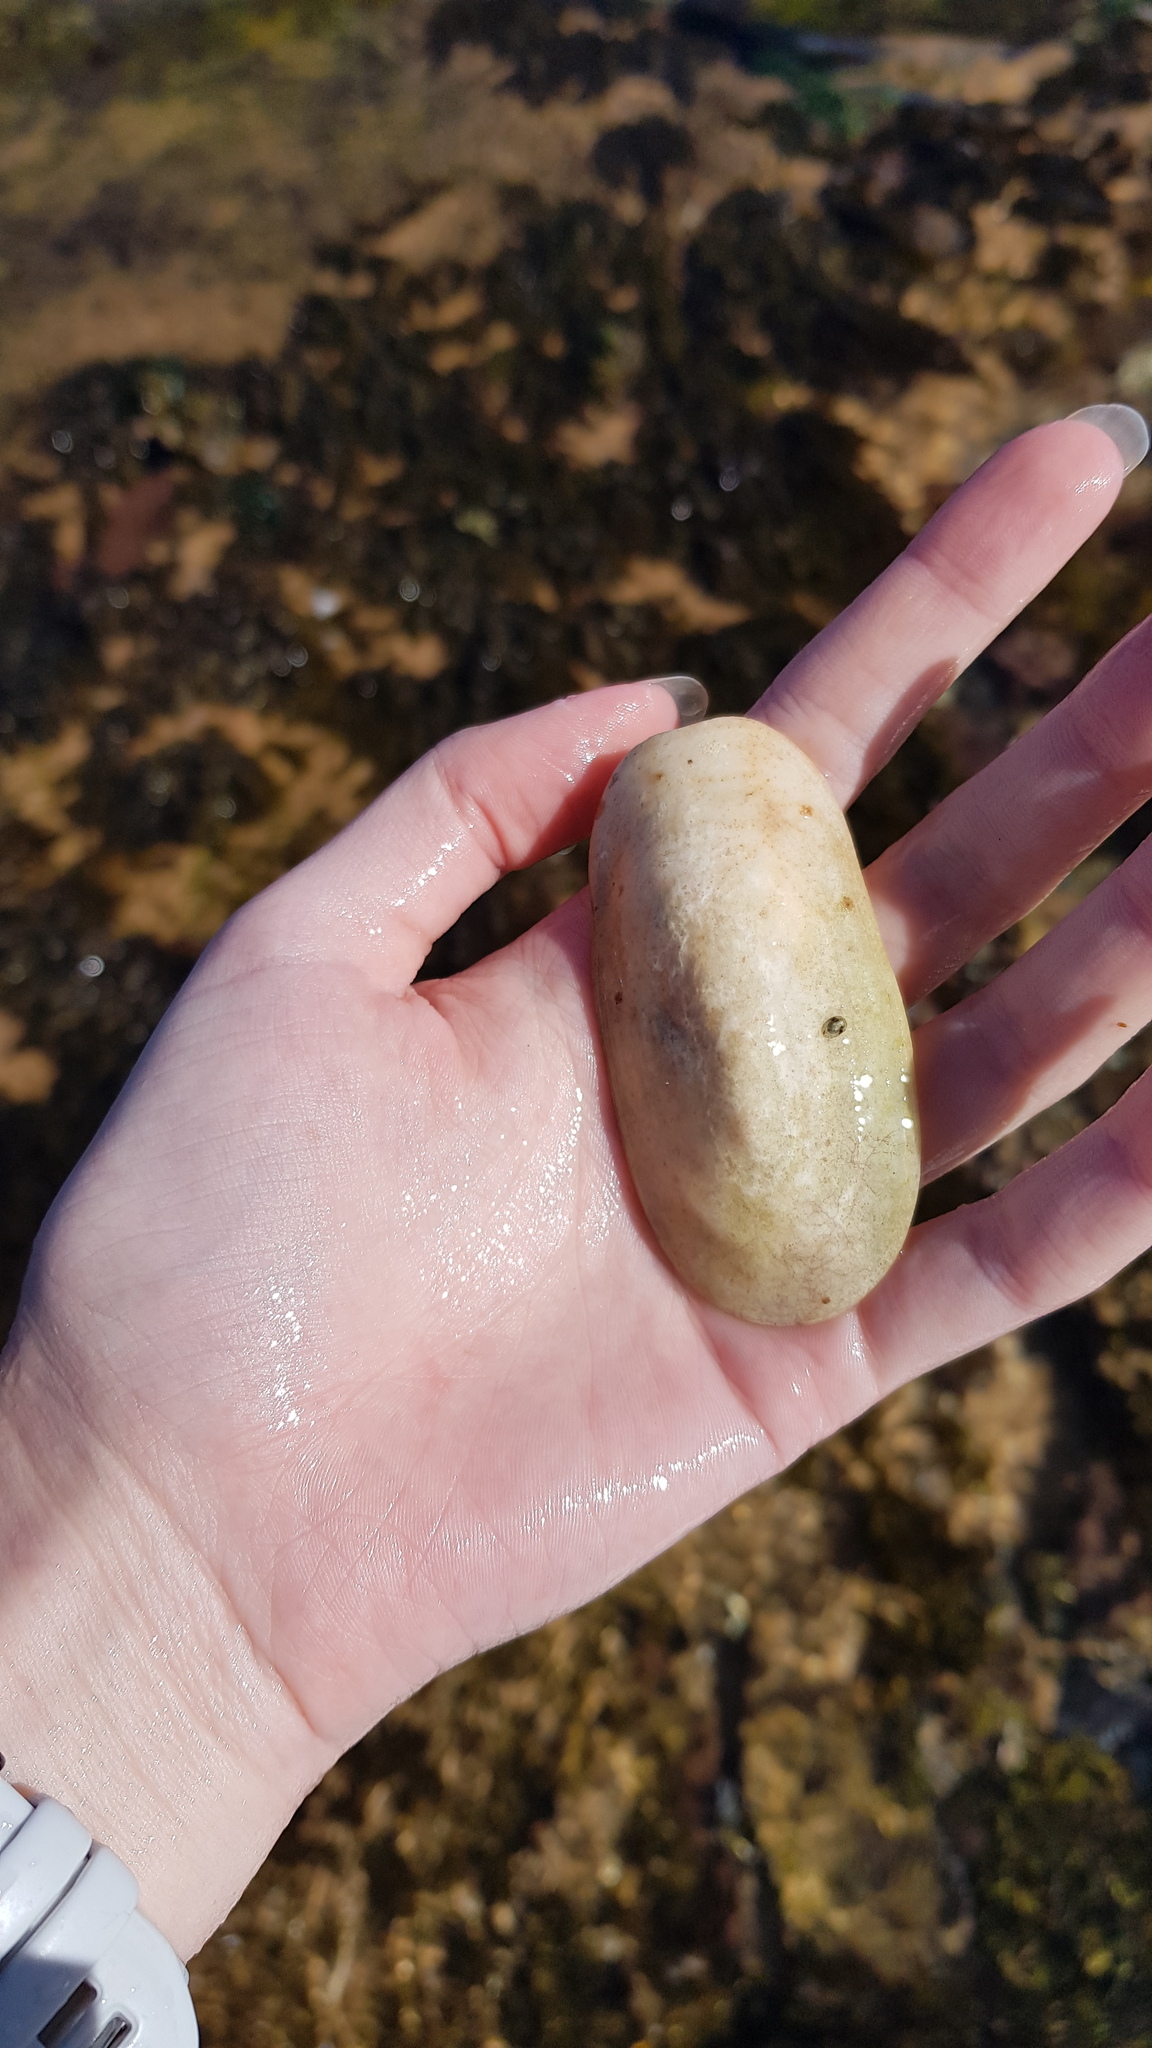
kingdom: Animalia
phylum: Mollusca
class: Gastropoda
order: Lepetellida
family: Fissurellidae
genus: Scutus
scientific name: Scutus antipodes
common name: Duckbill shell
